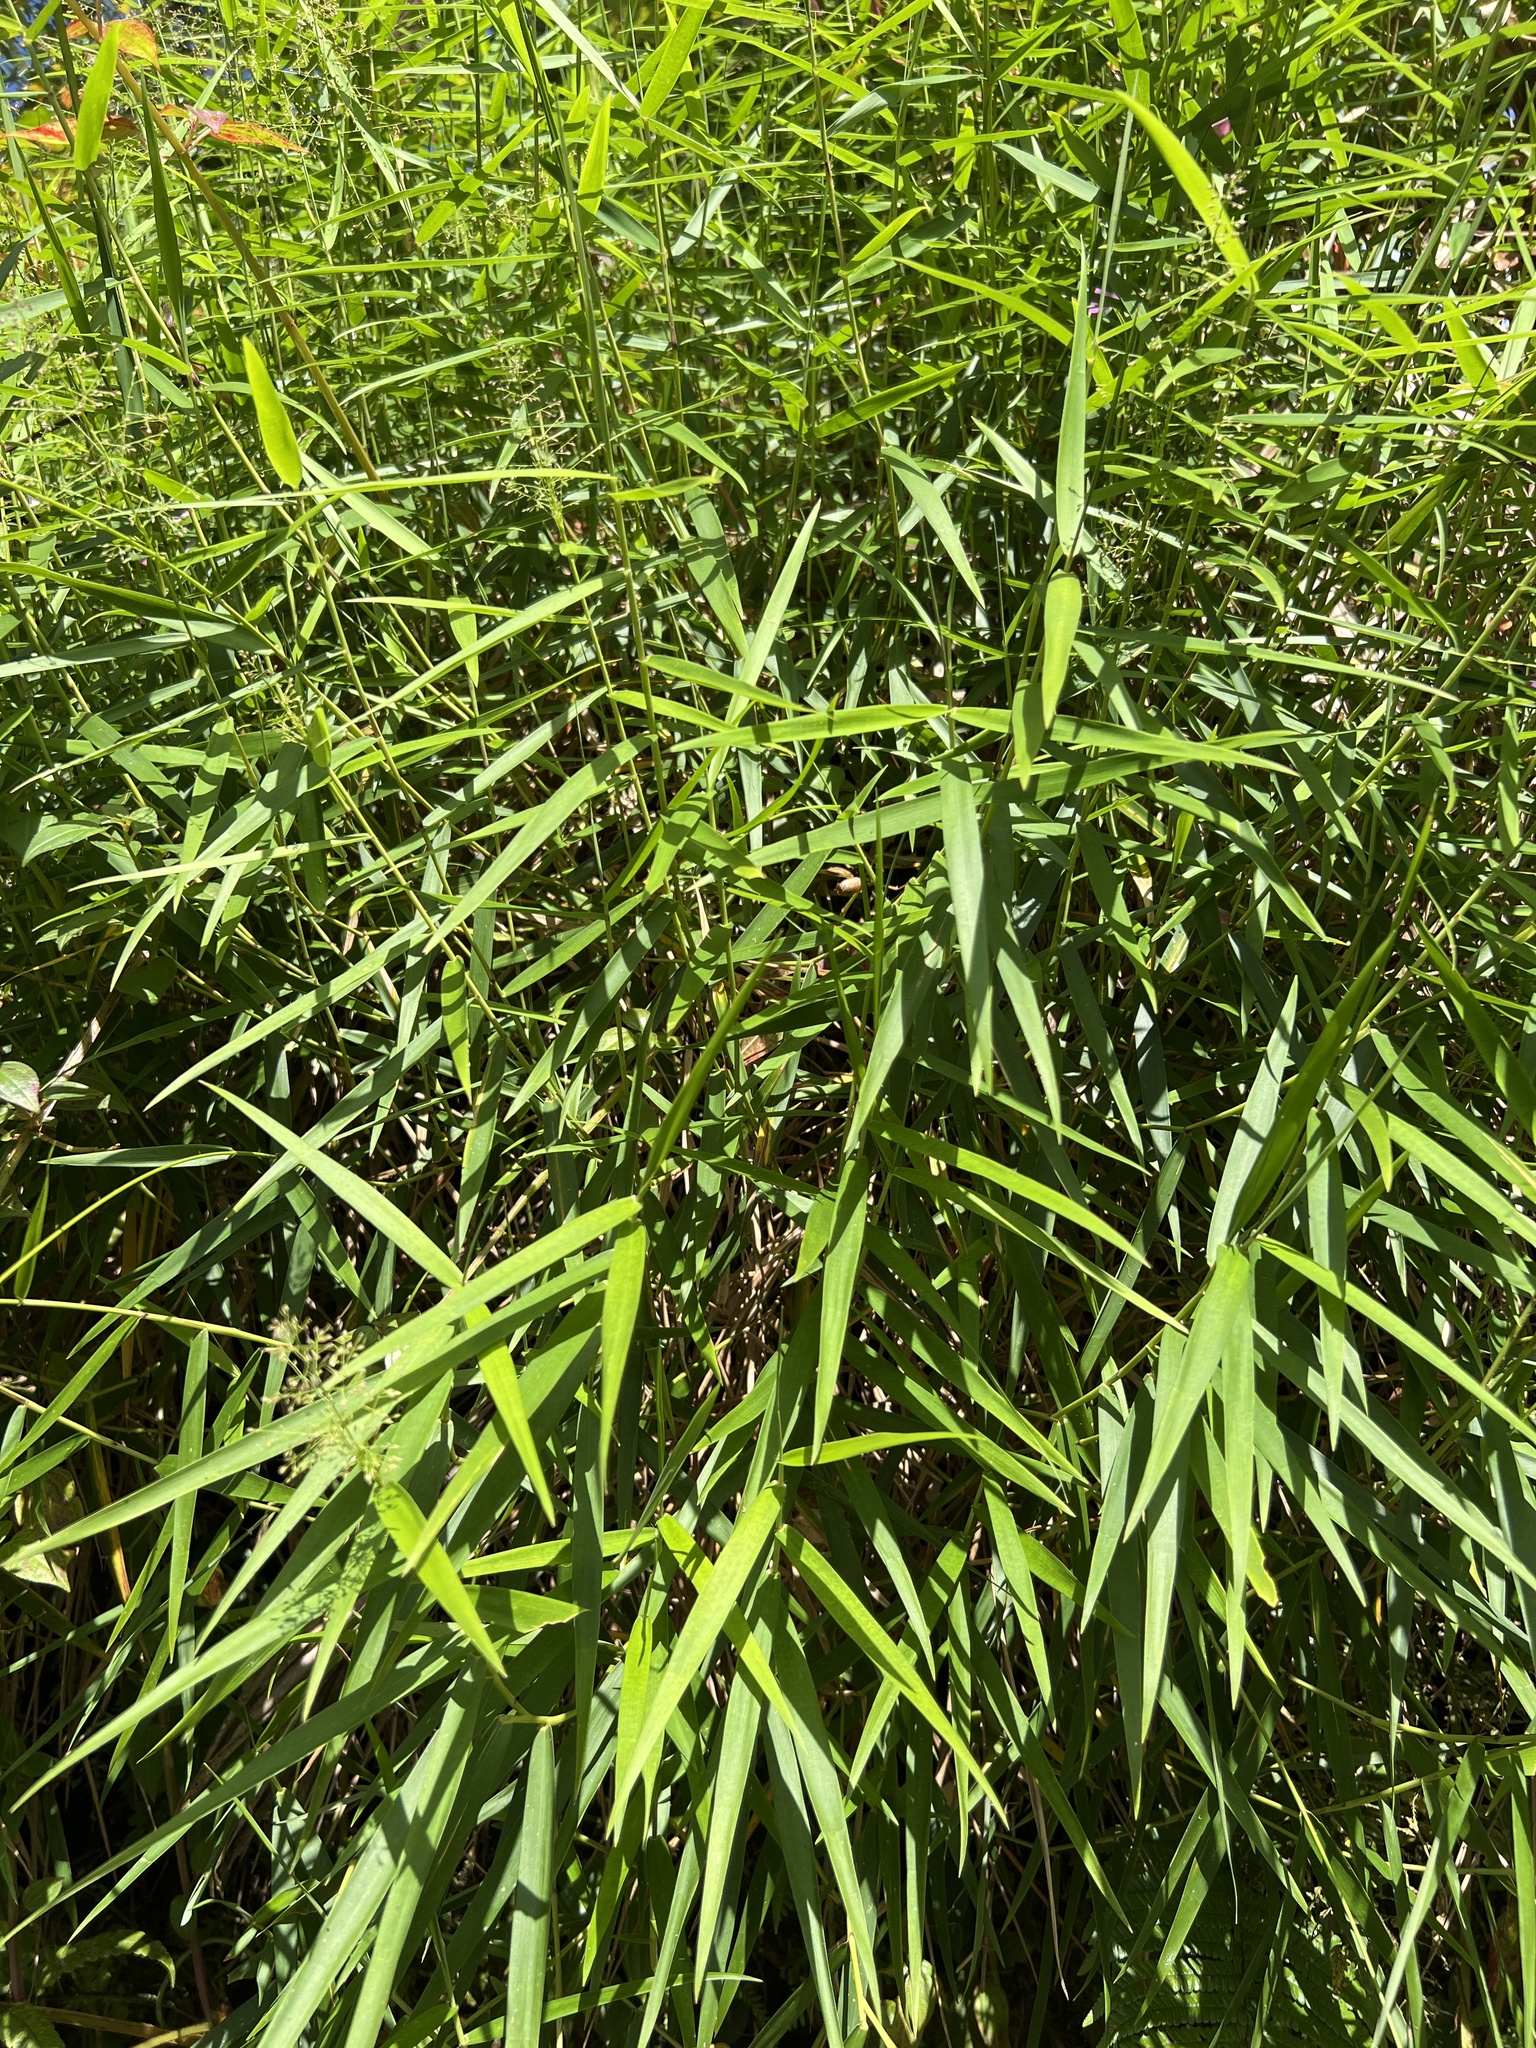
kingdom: Plantae
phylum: Tracheophyta
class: Liliopsida
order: Poales
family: Poaceae
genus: Isachne
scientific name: Isachne angustifolia
